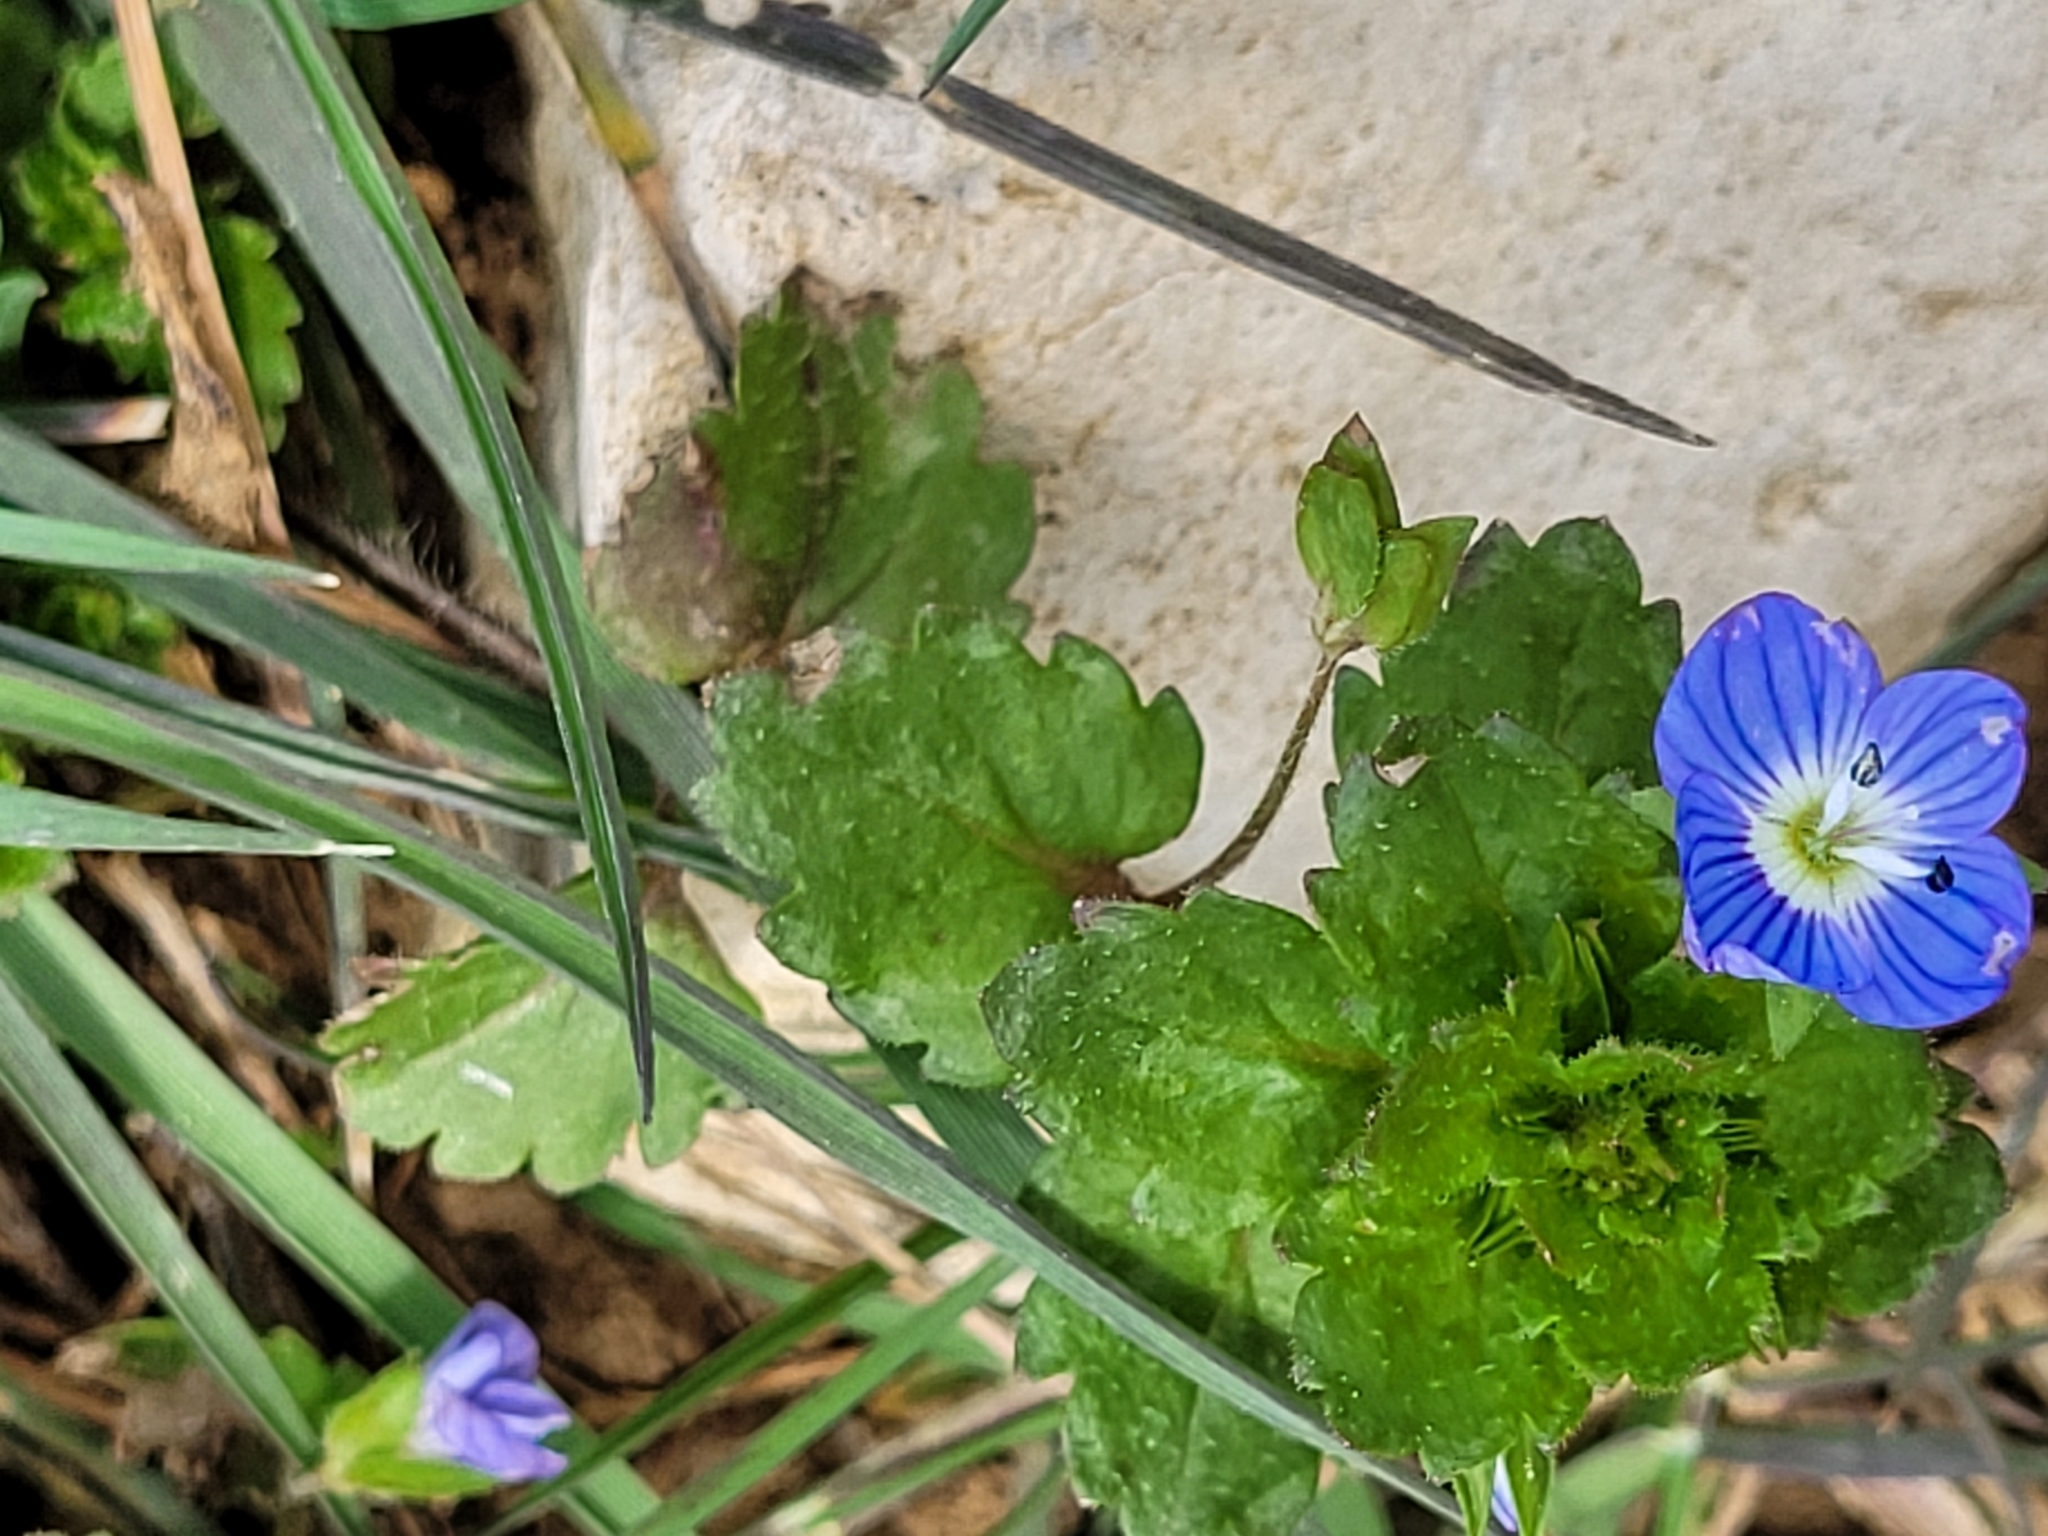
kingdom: Plantae
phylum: Tracheophyta
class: Magnoliopsida
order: Lamiales
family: Plantaginaceae
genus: Veronica
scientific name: Veronica persica
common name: Common field-speedwell
